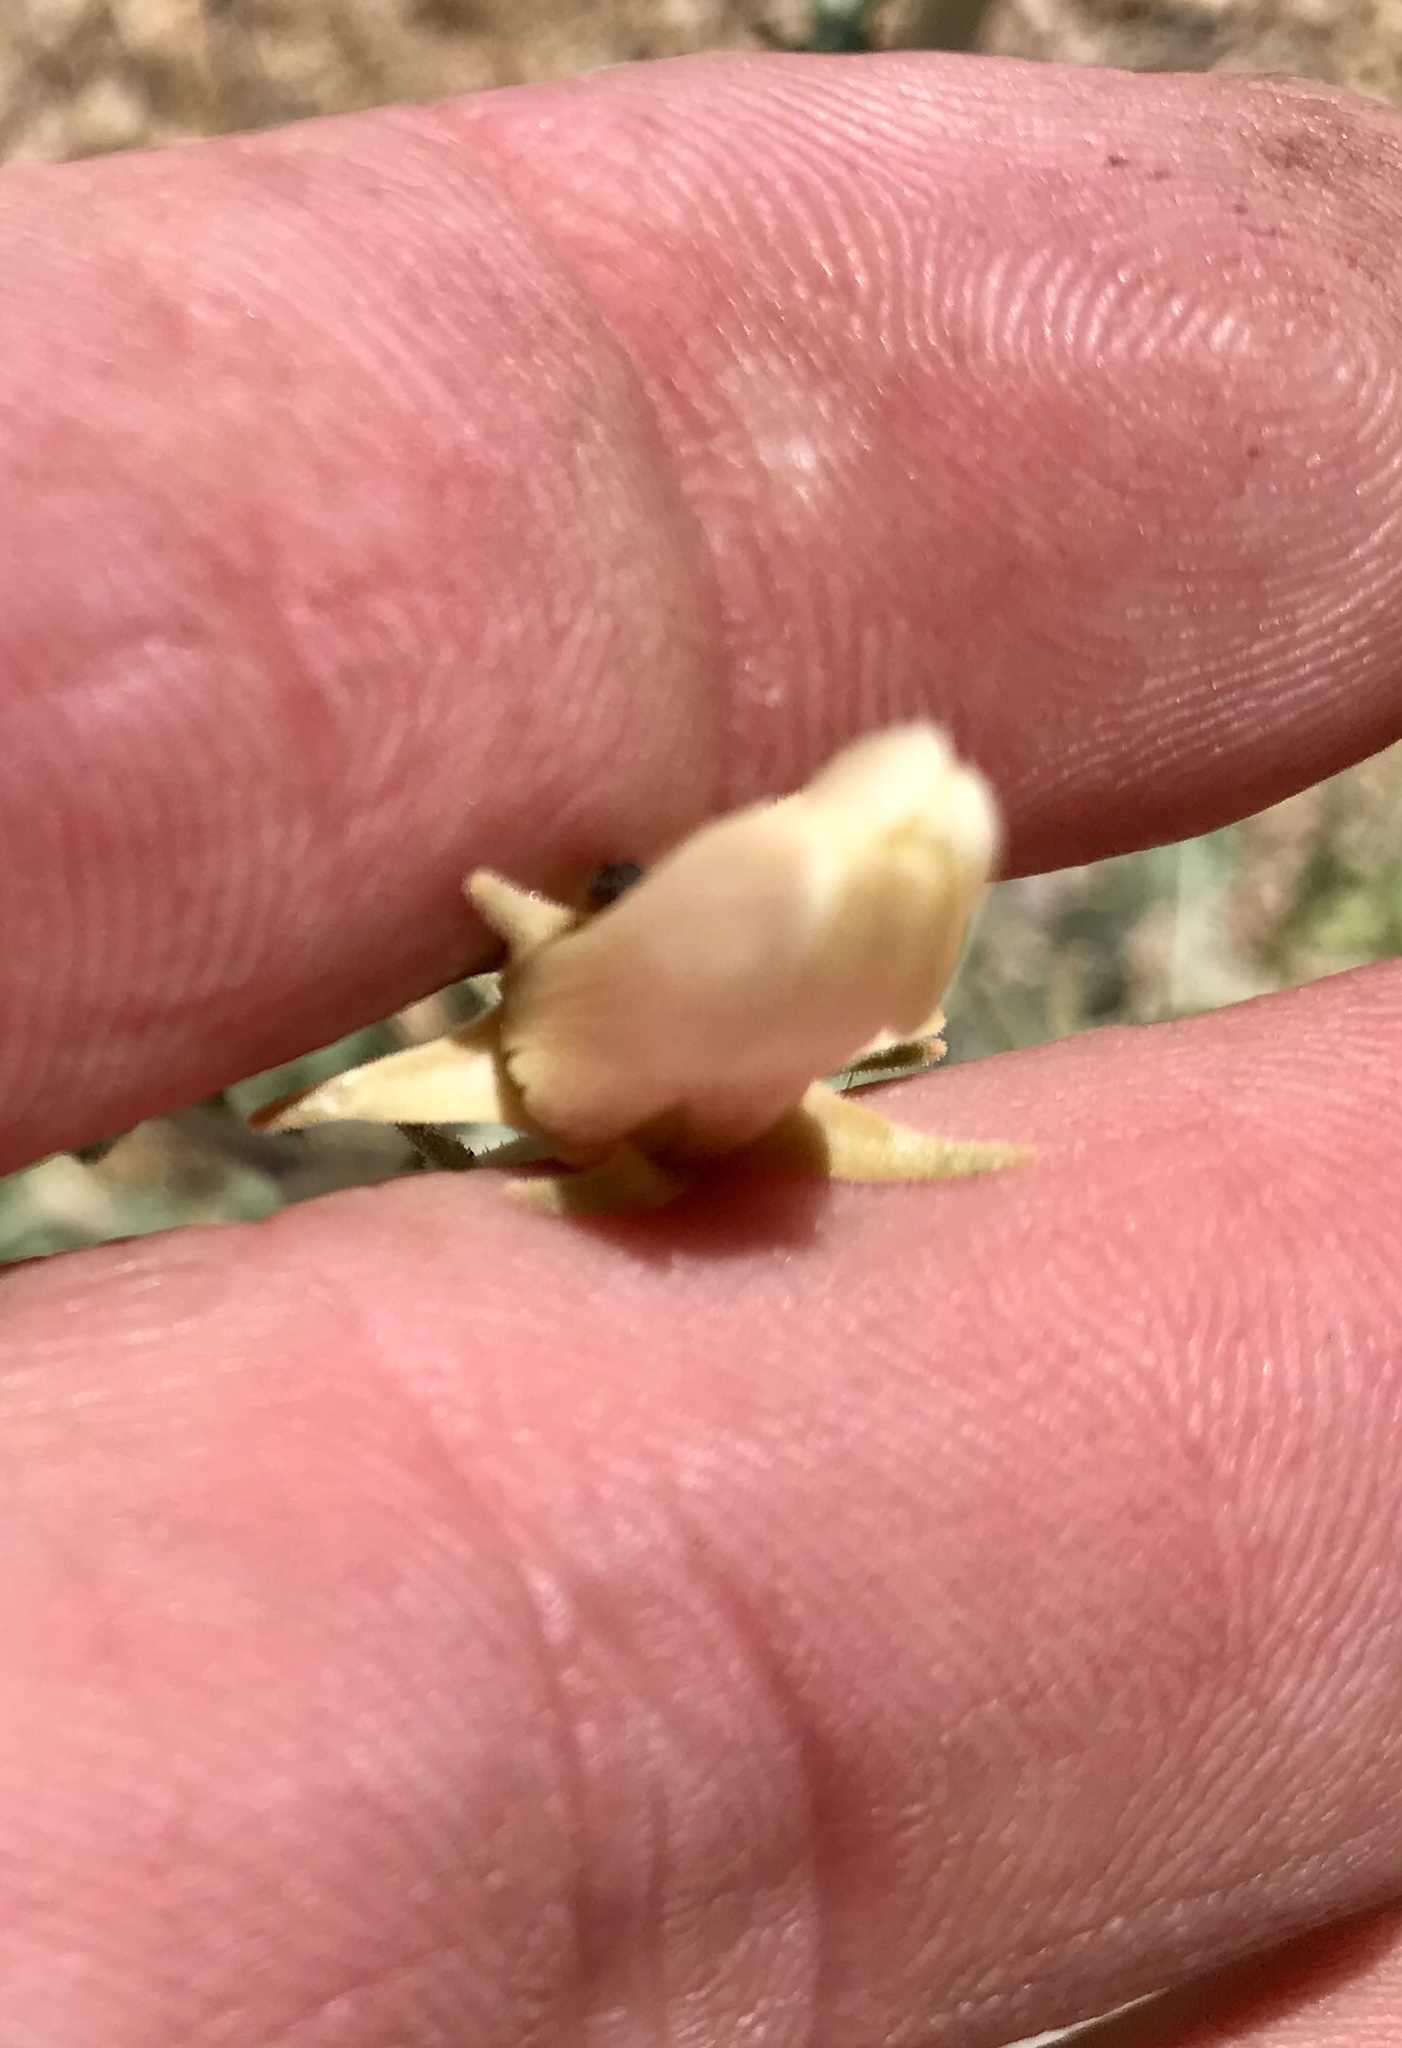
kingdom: Plantae
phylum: Tracheophyta
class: Magnoliopsida
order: Cornales
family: Loasaceae
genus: Mentzelia
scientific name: Mentzelia procera
